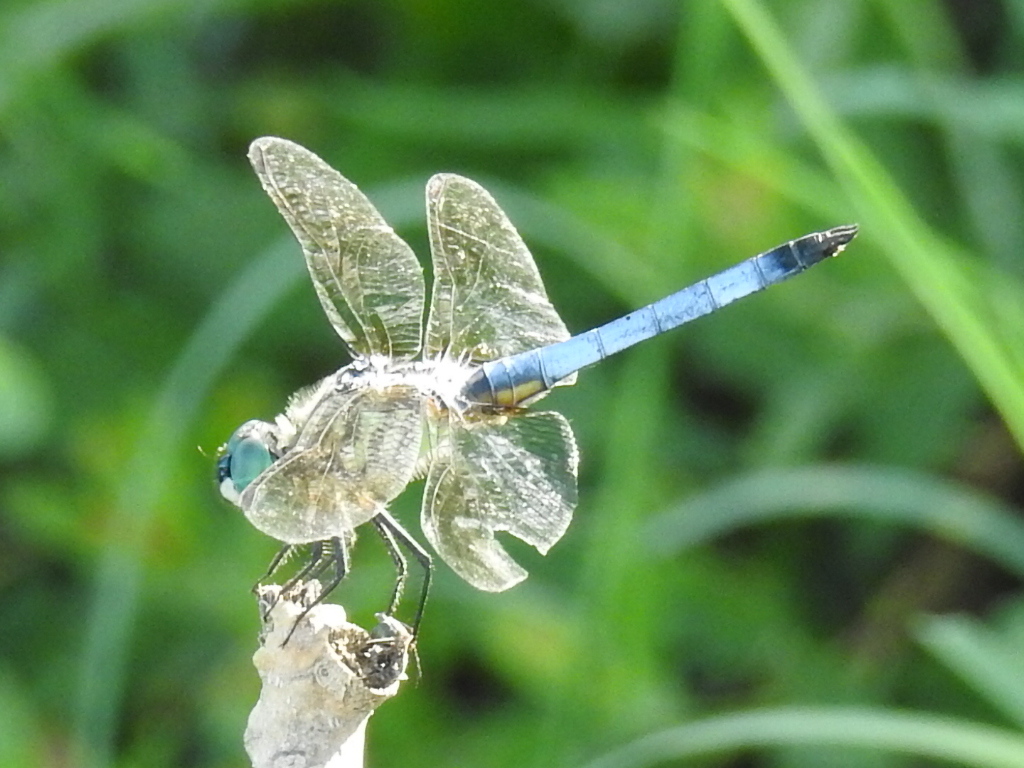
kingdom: Animalia
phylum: Arthropoda
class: Insecta
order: Odonata
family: Libellulidae
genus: Pachydiplax
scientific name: Pachydiplax longipennis
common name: Blue dasher
